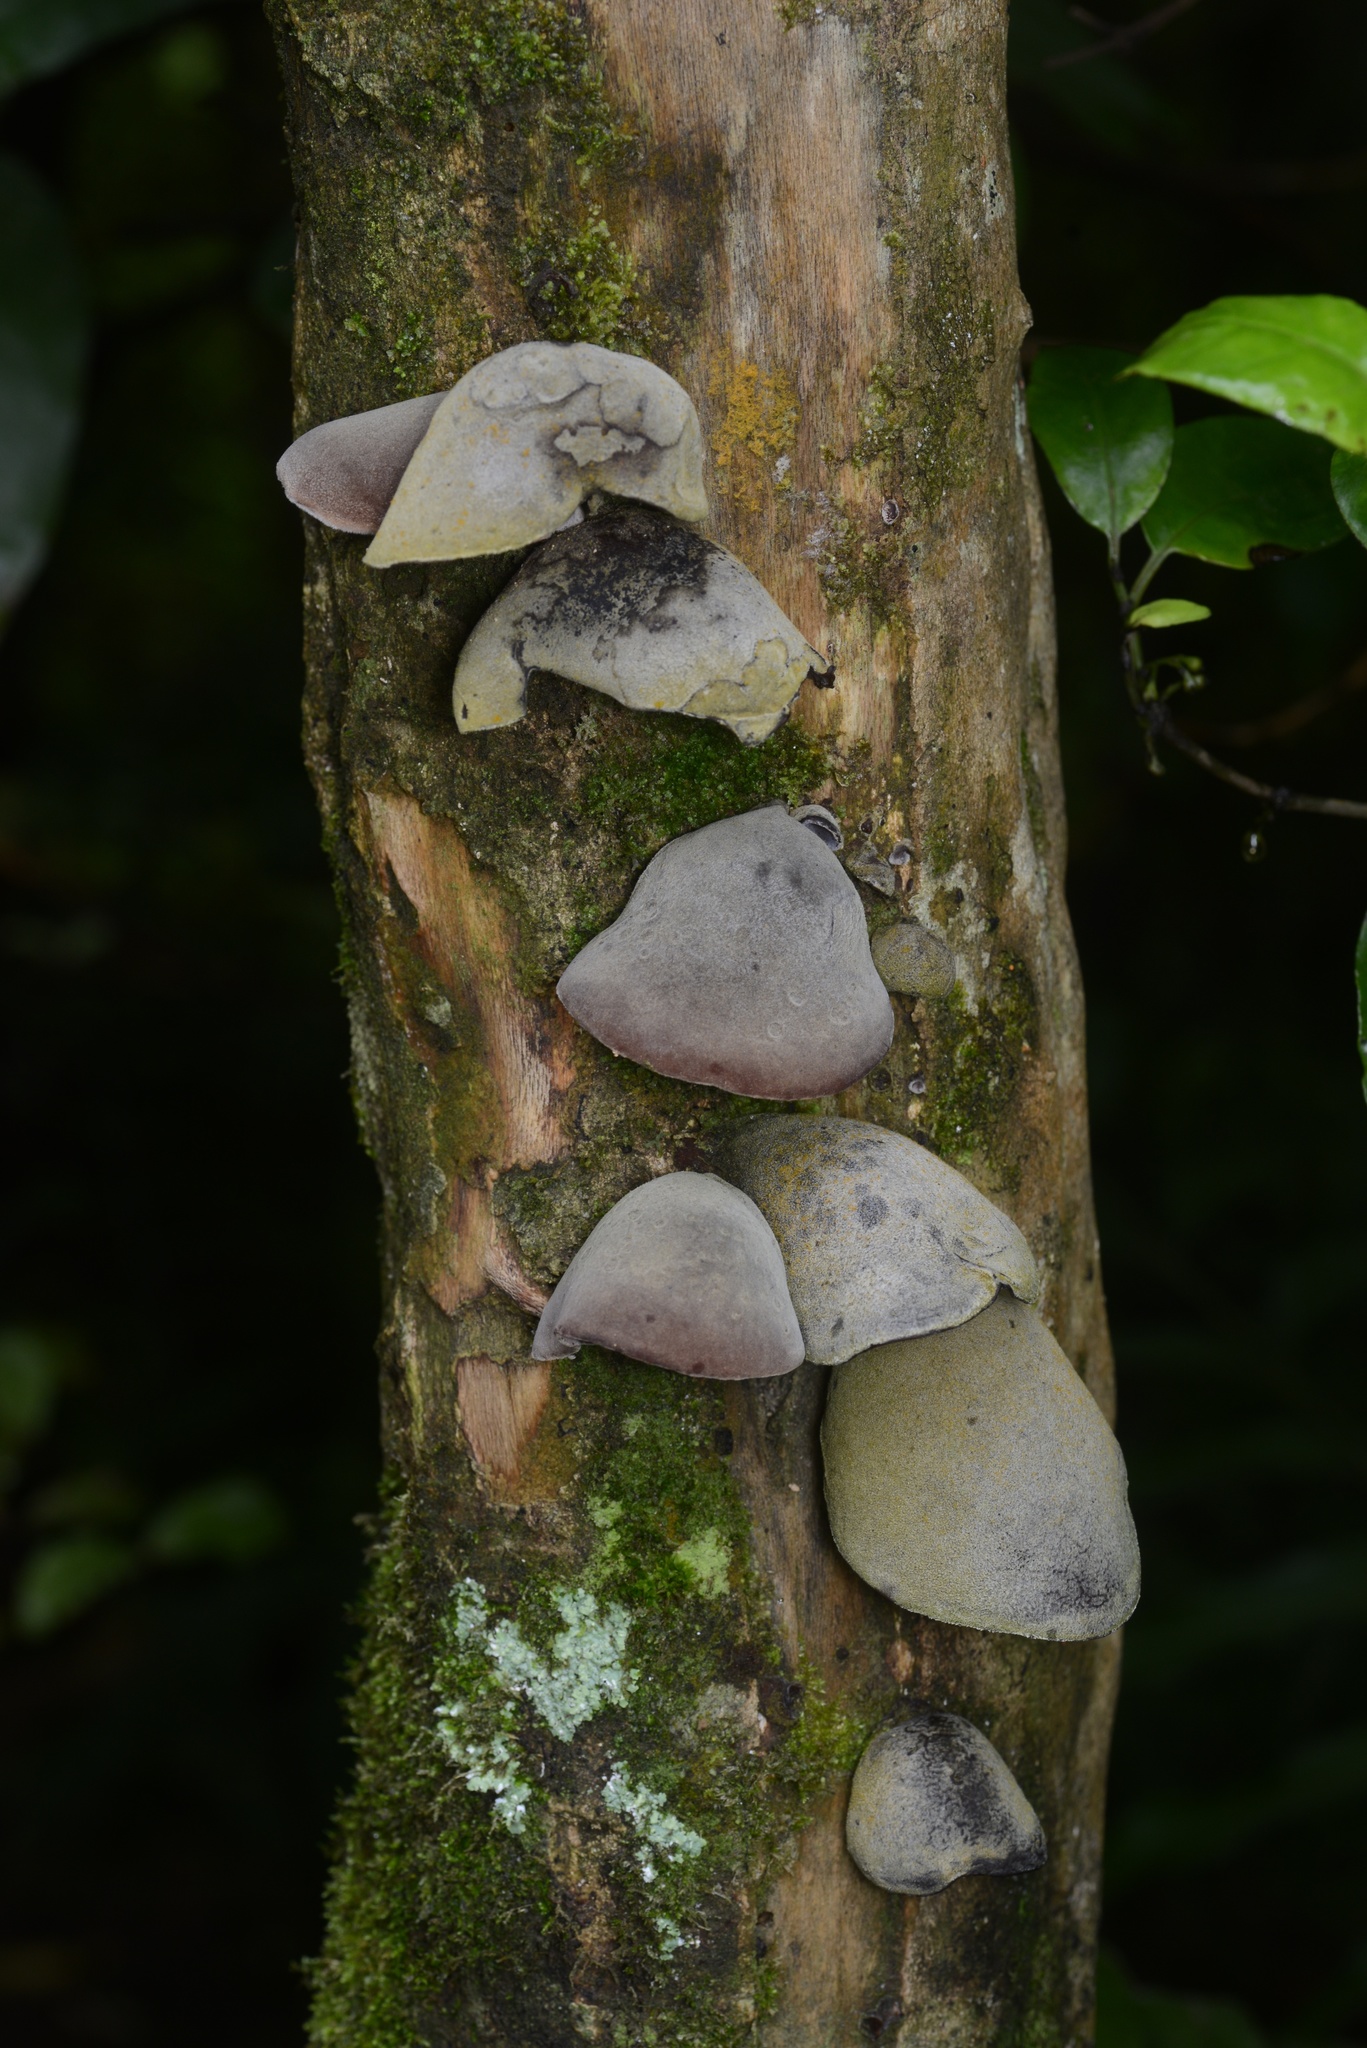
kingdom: Fungi
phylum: Basidiomycota
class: Agaricomycetes
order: Auriculariales
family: Auriculariaceae
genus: Auricularia
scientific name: Auricularia cornea
